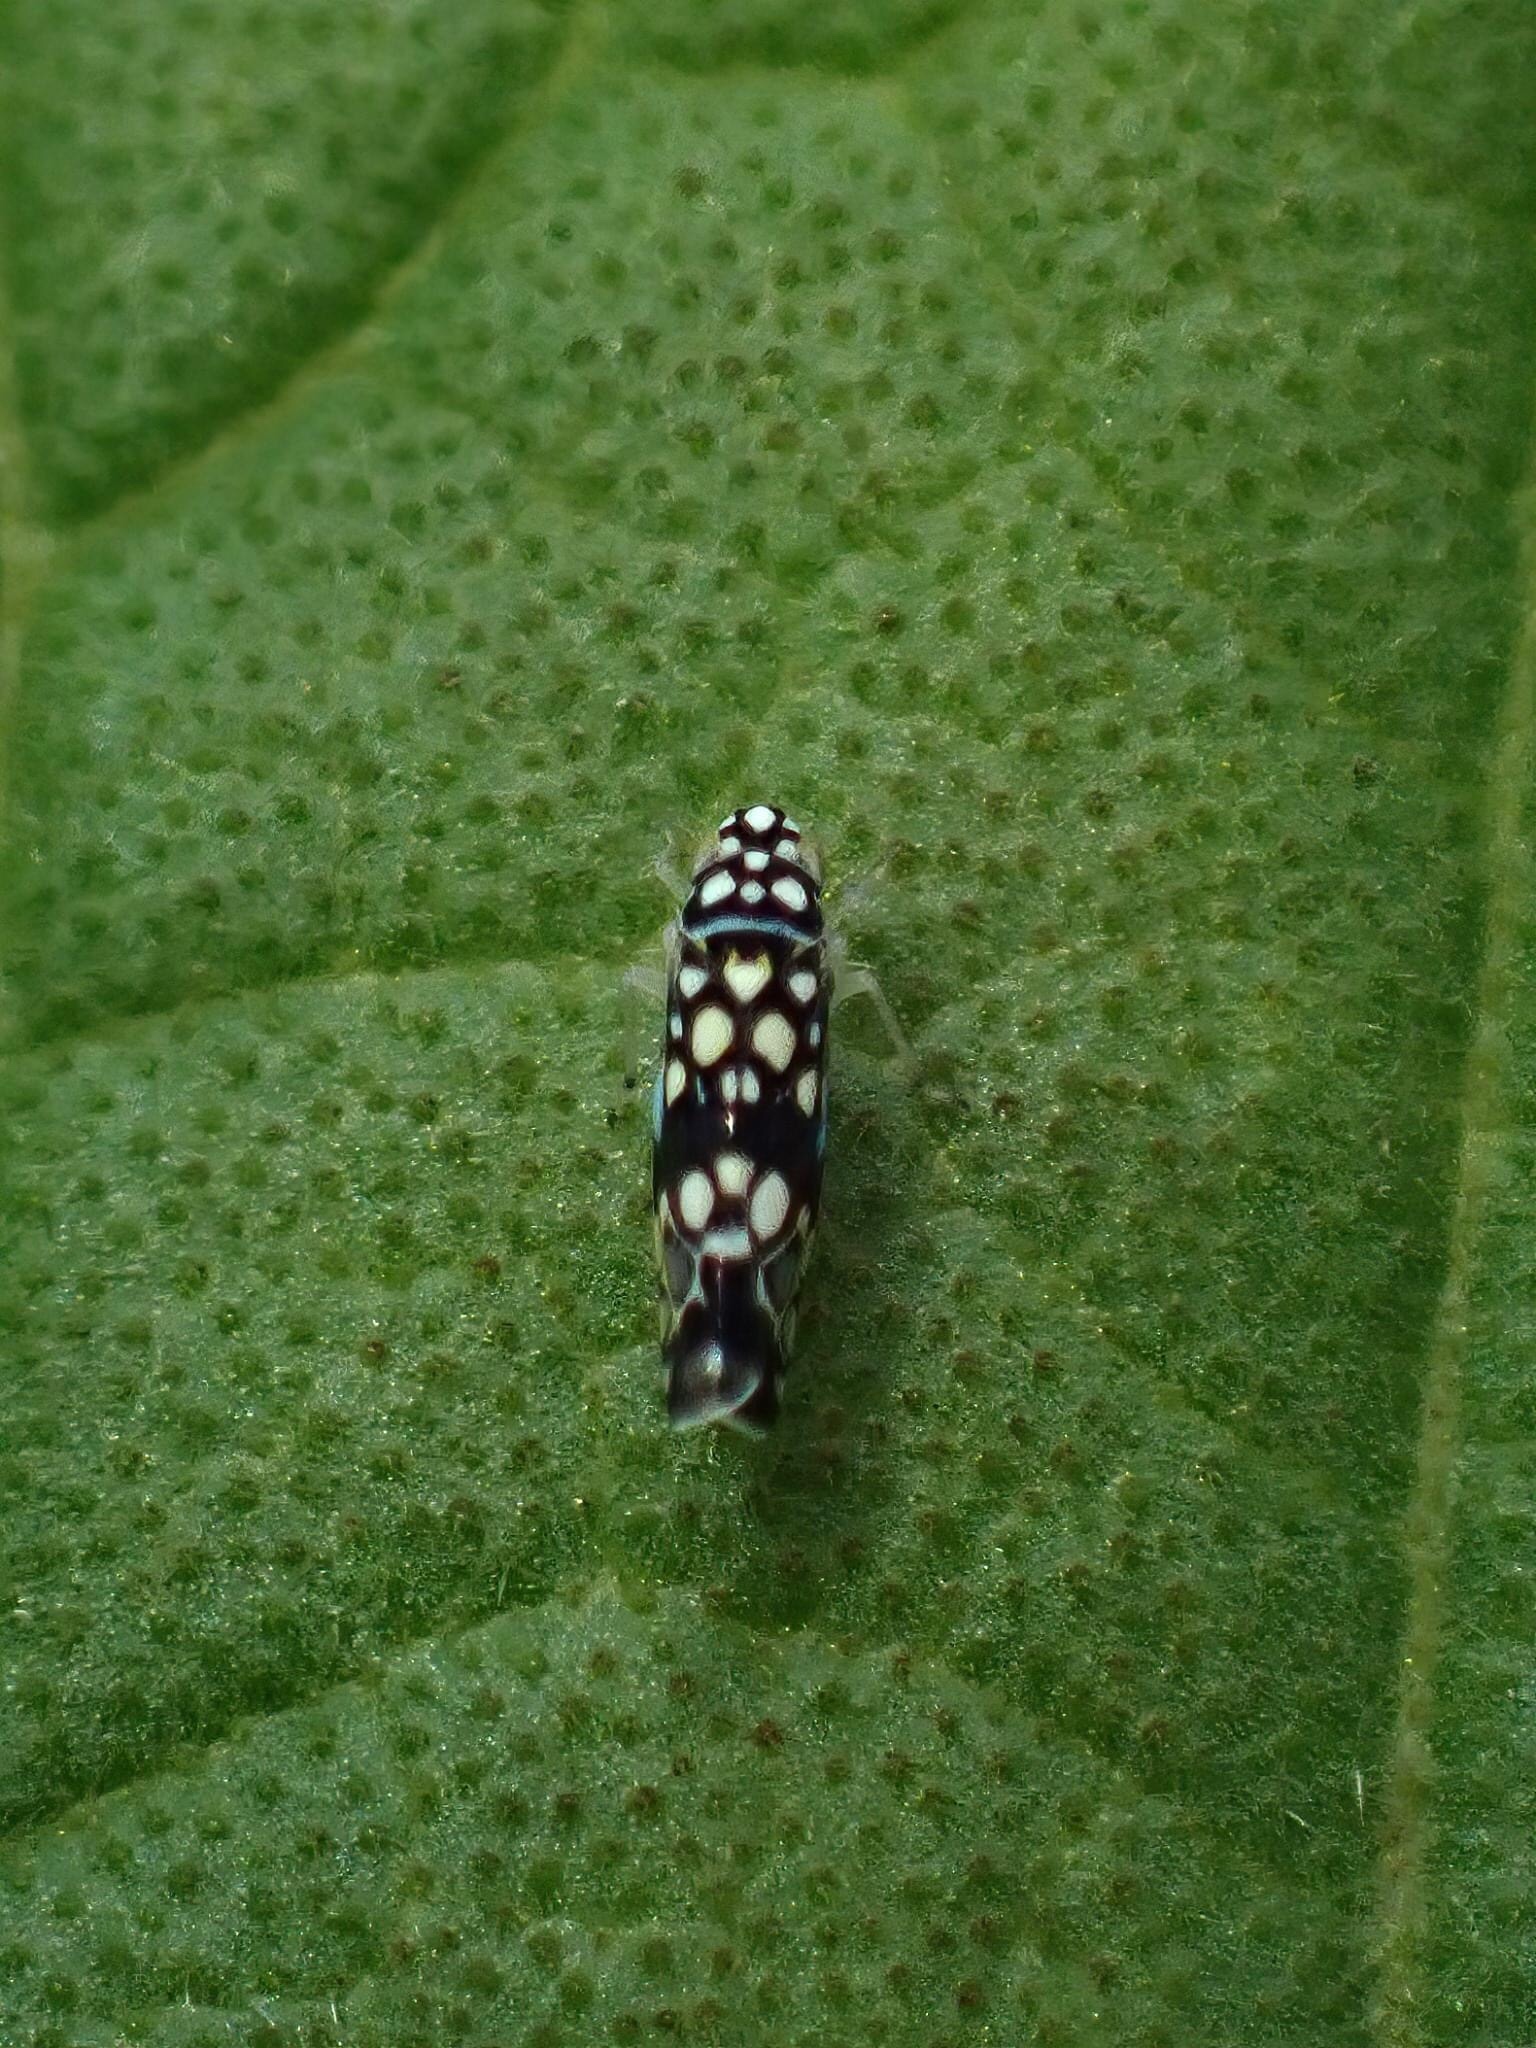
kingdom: Animalia
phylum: Arthropoda
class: Insecta
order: Hemiptera
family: Cicadellidae
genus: Trypanalebra
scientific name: Trypanalebra maculata
